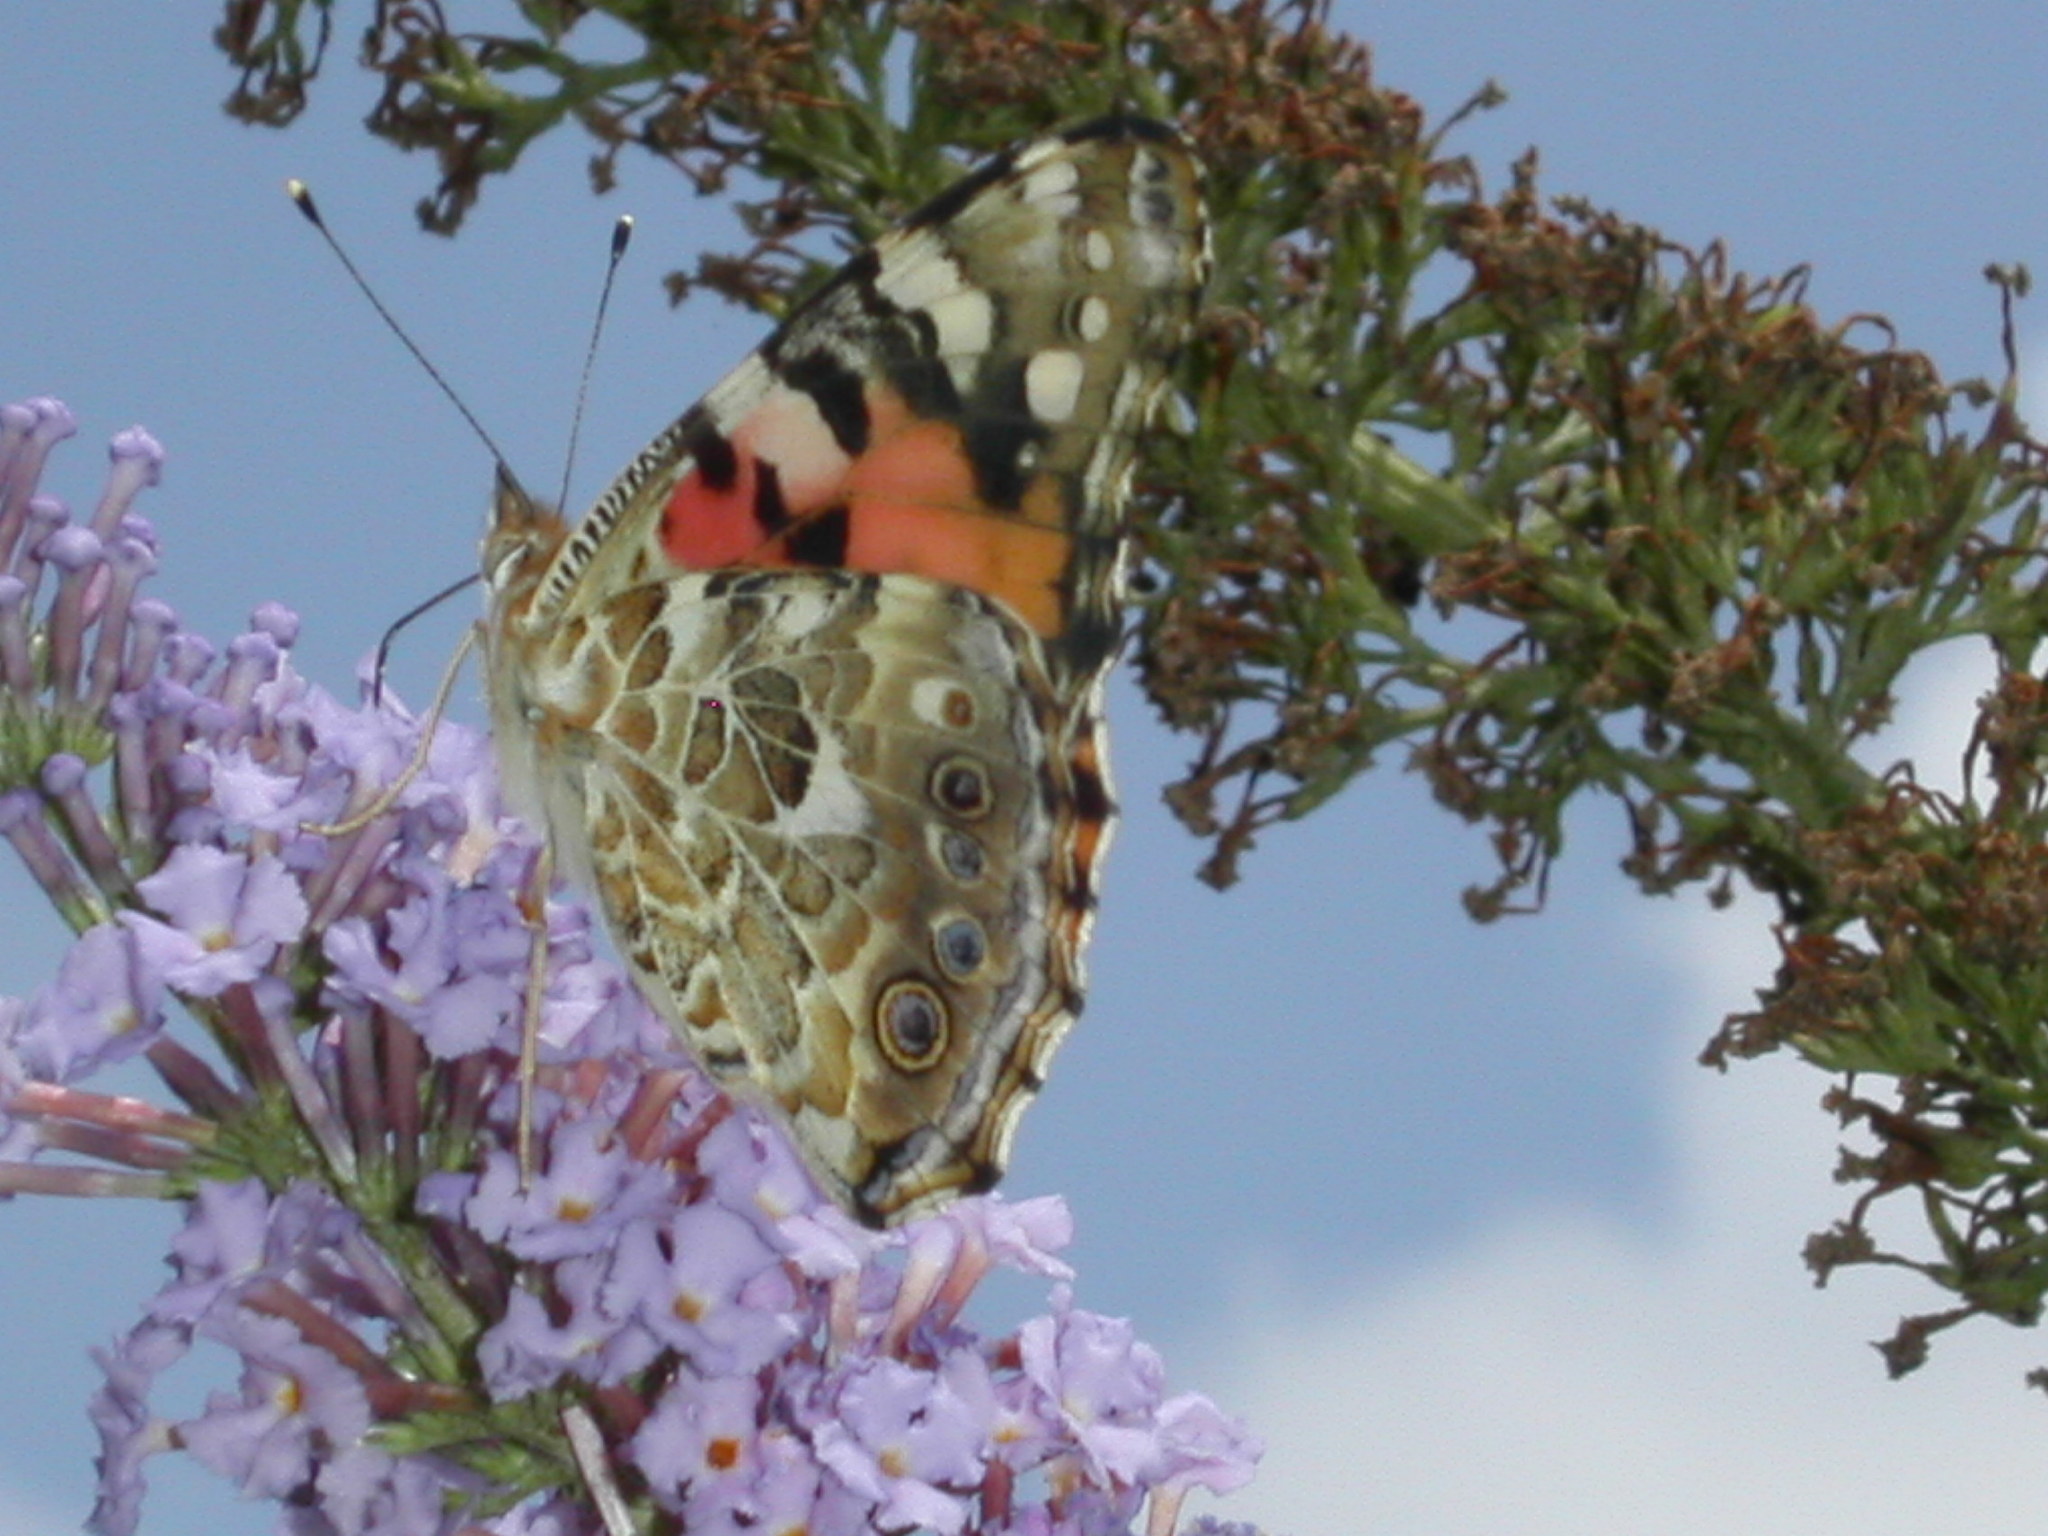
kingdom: Animalia
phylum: Arthropoda
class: Insecta
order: Lepidoptera
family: Nymphalidae
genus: Vanessa
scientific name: Vanessa cardui
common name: Painted lady
